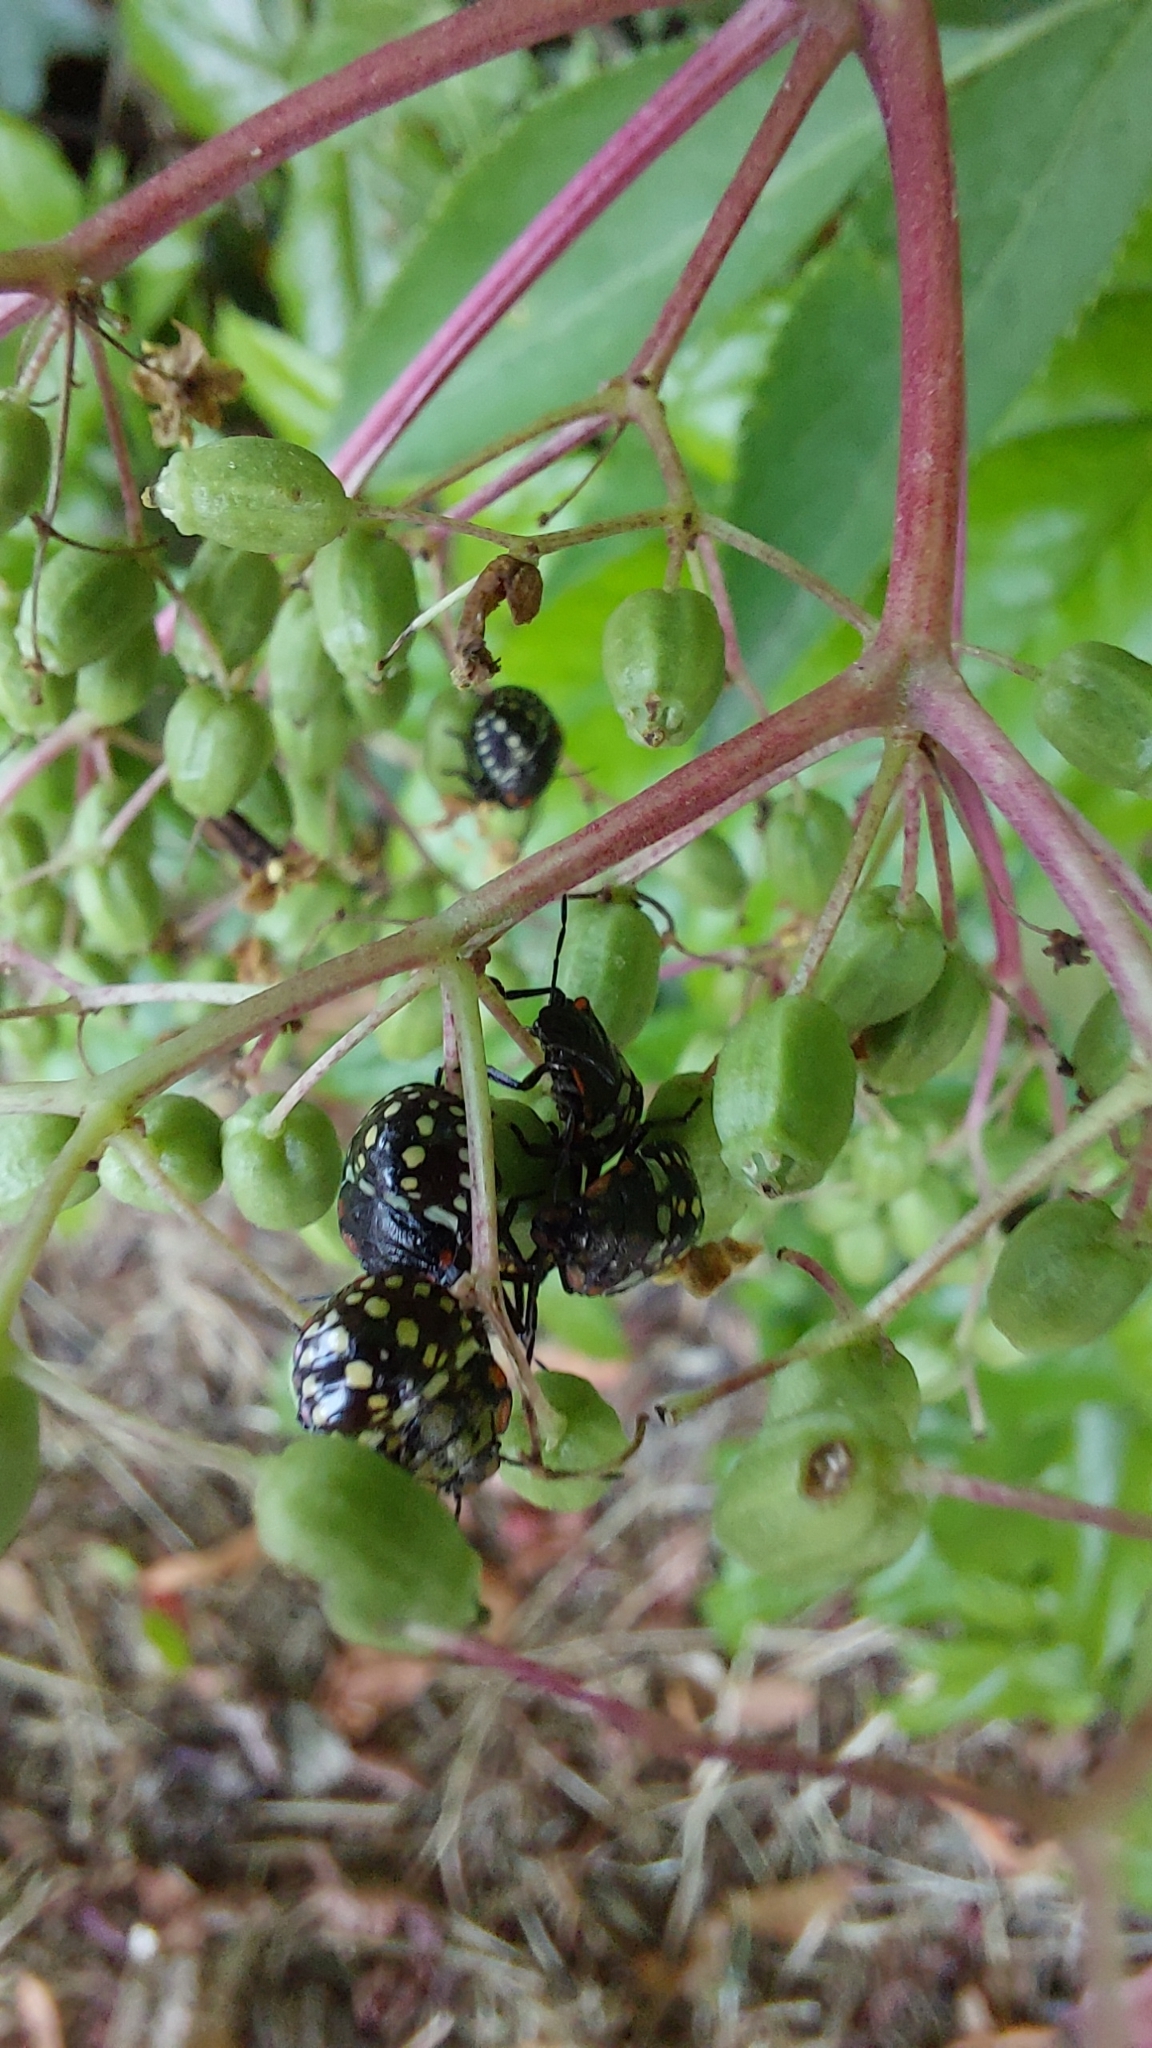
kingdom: Animalia
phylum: Arthropoda
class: Insecta
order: Hemiptera
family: Pentatomidae
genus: Nezara
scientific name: Nezara viridula
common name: Southern green stink bug
